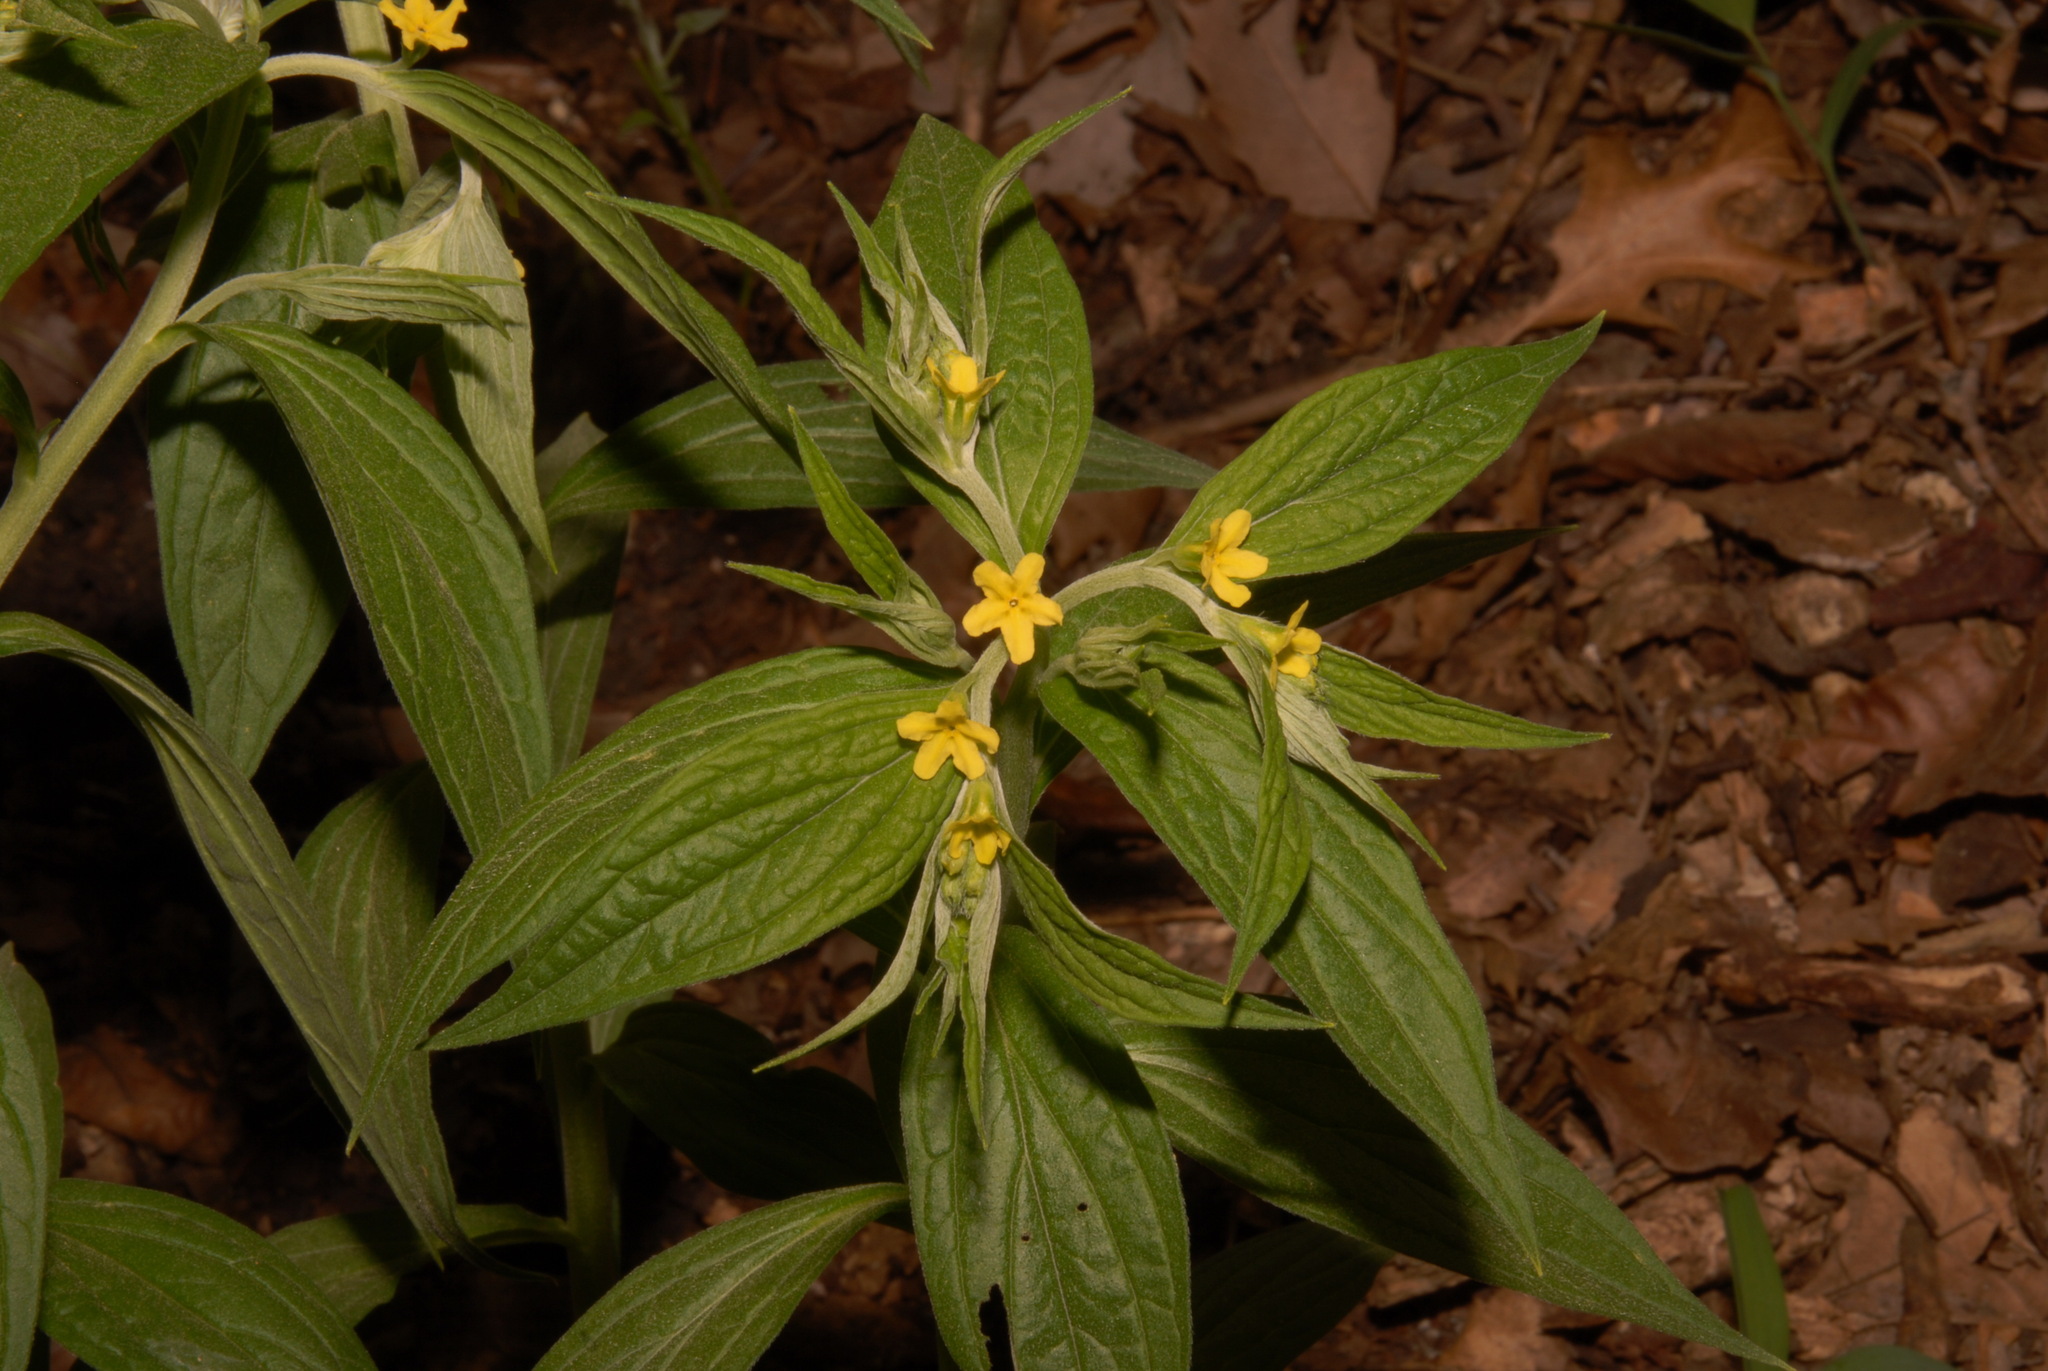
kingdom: Plantae
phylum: Tracheophyta
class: Magnoliopsida
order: Boraginales
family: Boraginaceae
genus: Lithospermum
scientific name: Lithospermum latifolium
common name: American gromwell
